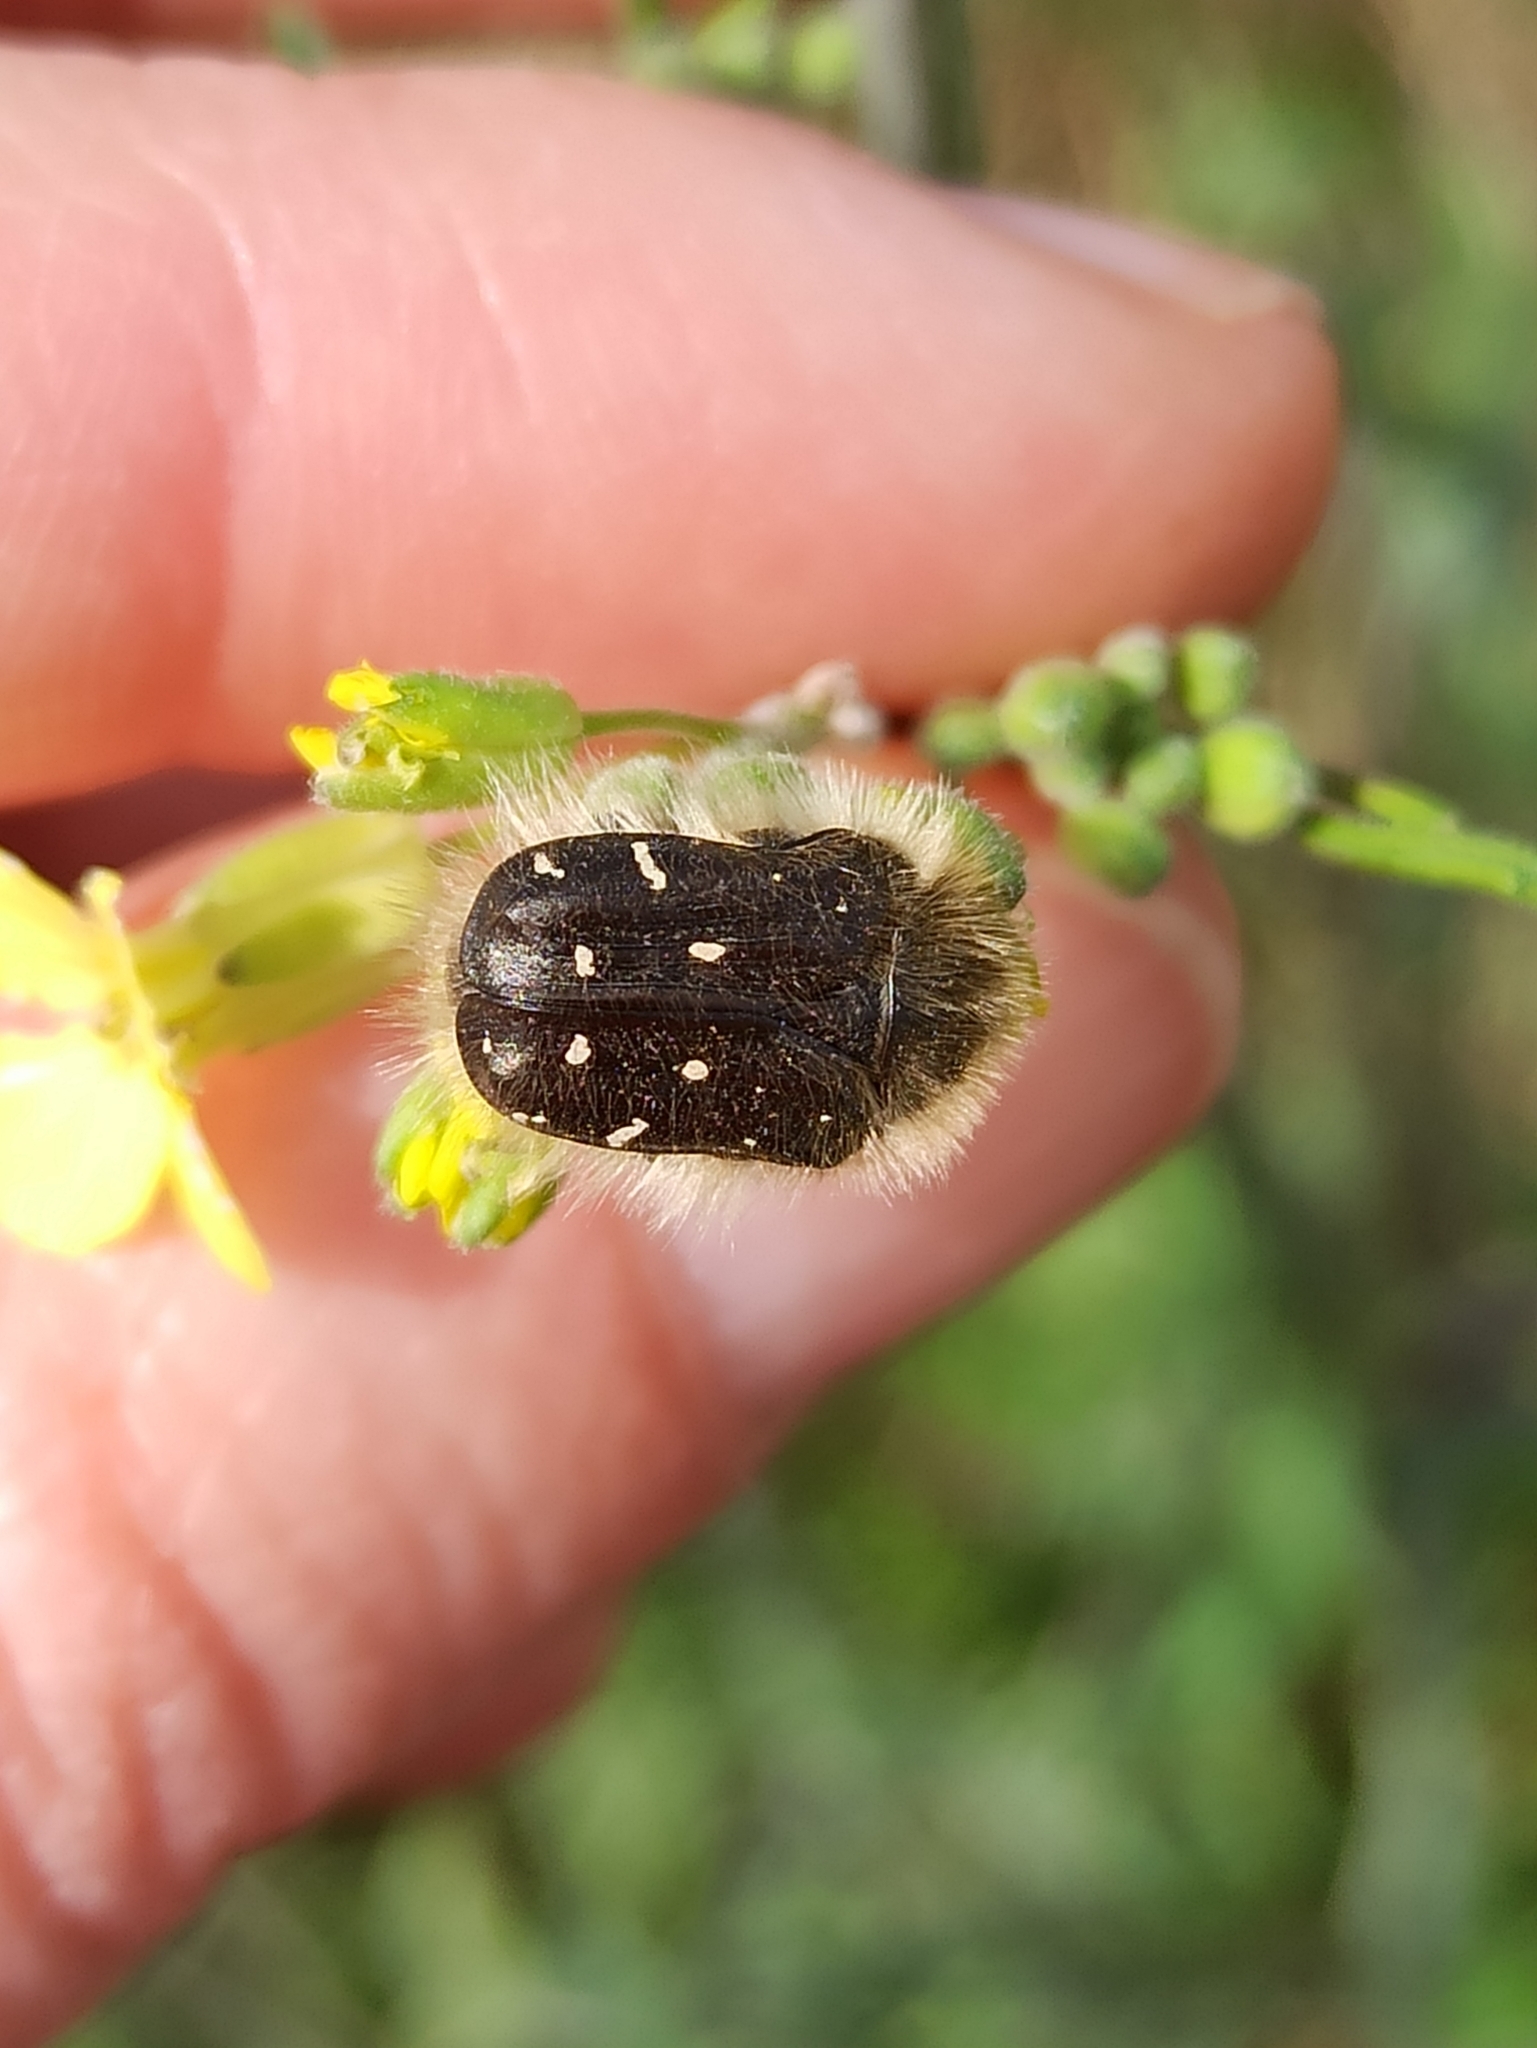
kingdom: Animalia
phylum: Arthropoda
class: Insecta
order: Coleoptera
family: Scarabaeidae
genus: Tropinota
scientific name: Tropinota hirta
